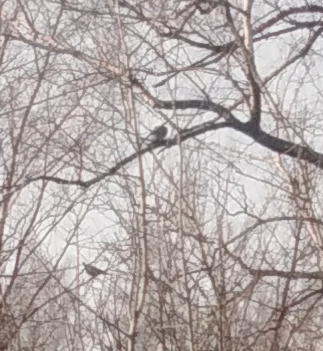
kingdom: Animalia
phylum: Chordata
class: Aves
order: Columbiformes
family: Columbidae
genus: Columba
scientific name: Columba palumbus
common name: Common wood pigeon
